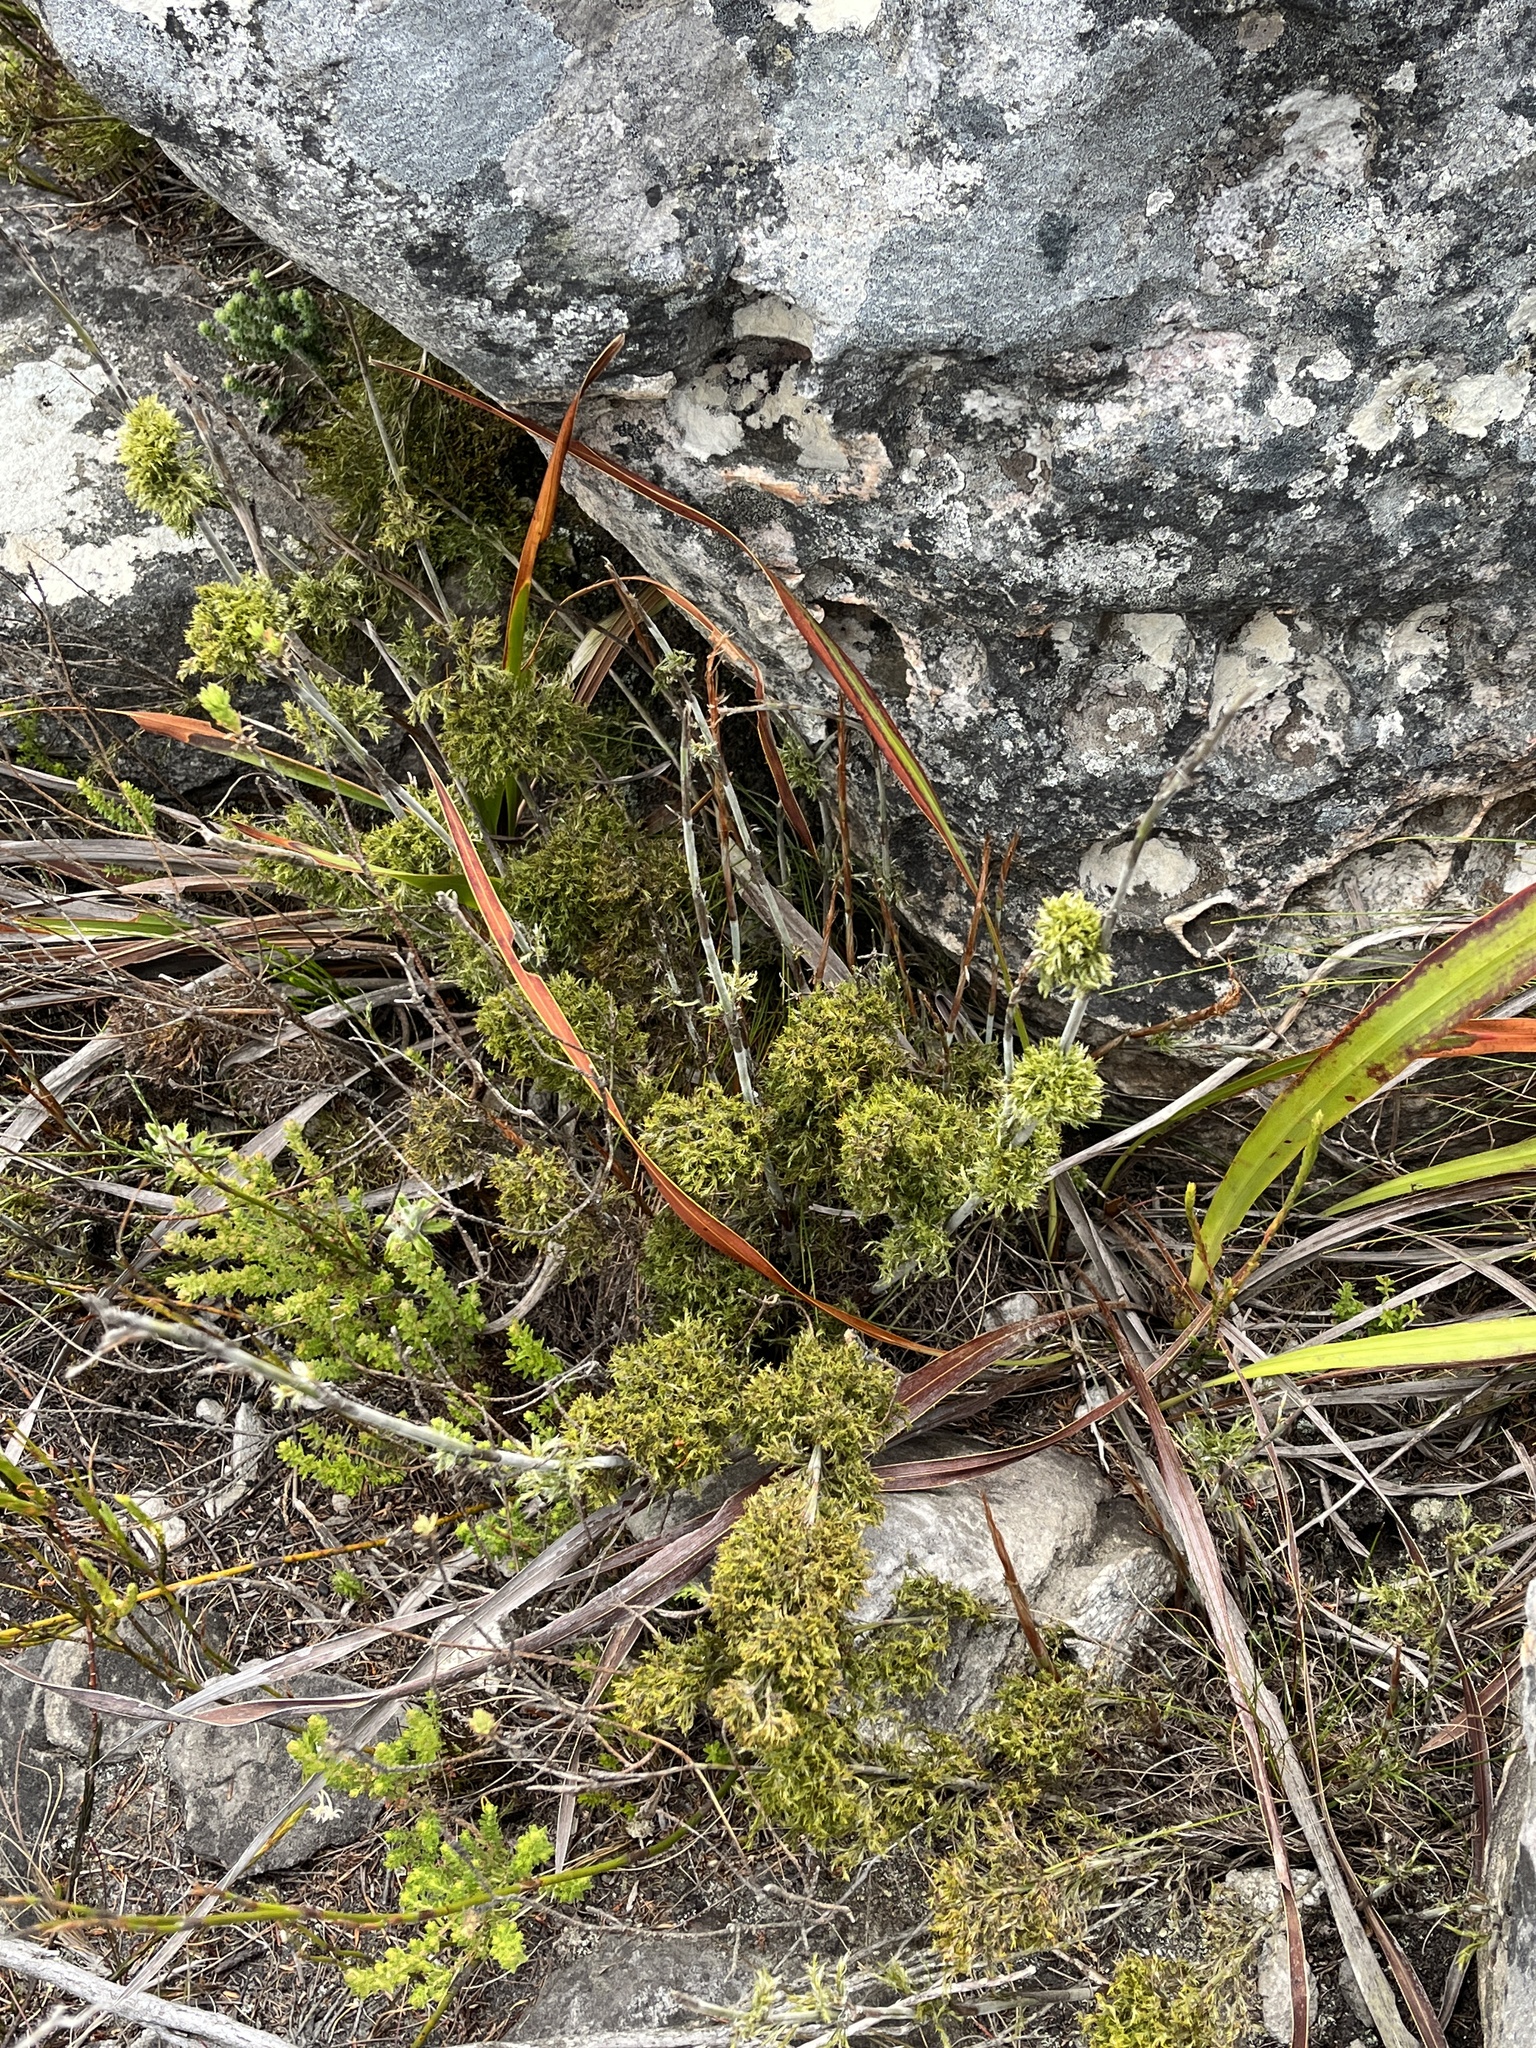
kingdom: Plantae
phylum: Tracheophyta
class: Liliopsida
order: Poales
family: Restionaceae
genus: Thamnochortus
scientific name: Thamnochortus cinereus
